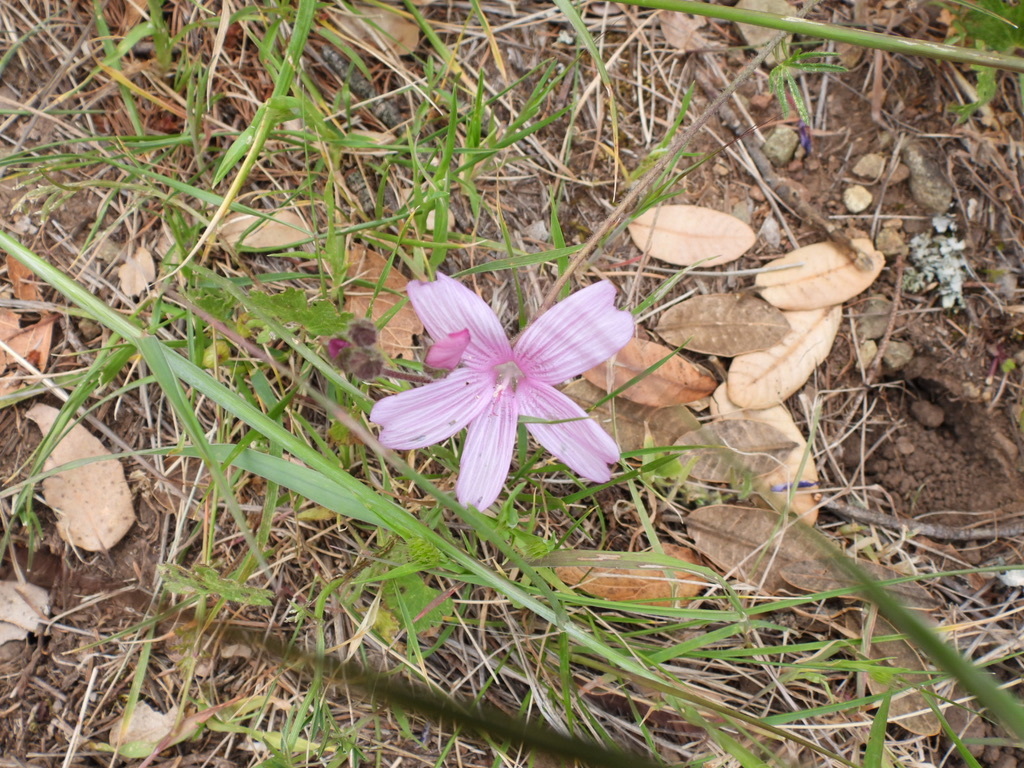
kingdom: Plantae
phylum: Tracheophyta
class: Magnoliopsida
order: Malvales
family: Malvaceae
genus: Sidalcea
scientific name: Sidalcea malviflora
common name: Greek mallow
